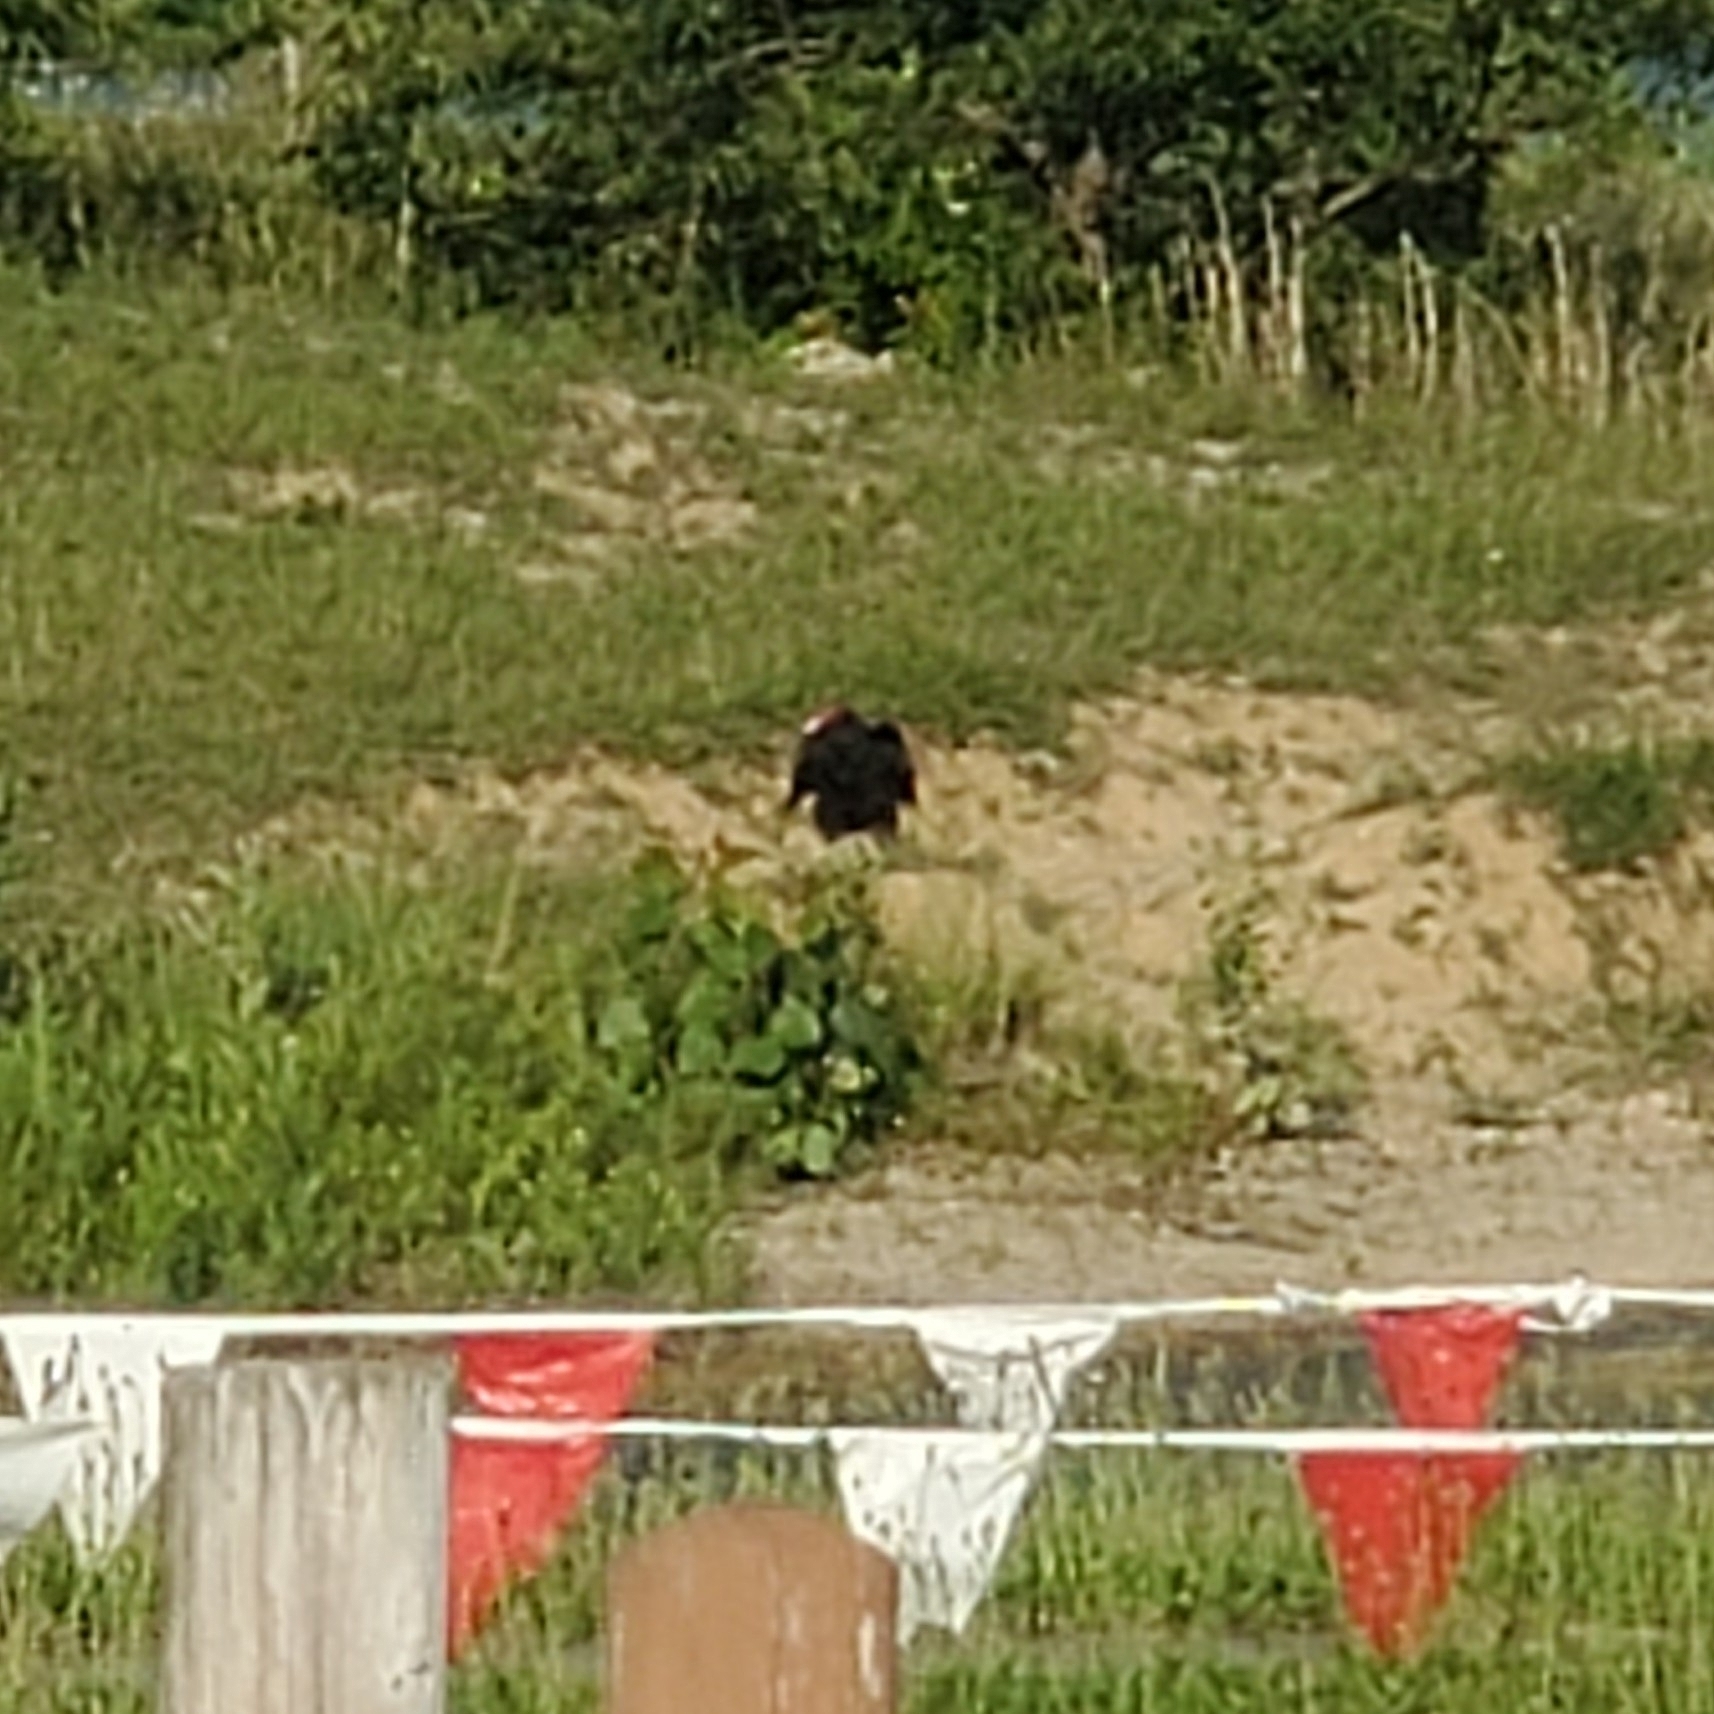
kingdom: Animalia
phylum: Chordata
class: Aves
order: Accipitriformes
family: Cathartidae
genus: Cathartes
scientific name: Cathartes aura
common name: Turkey vulture
